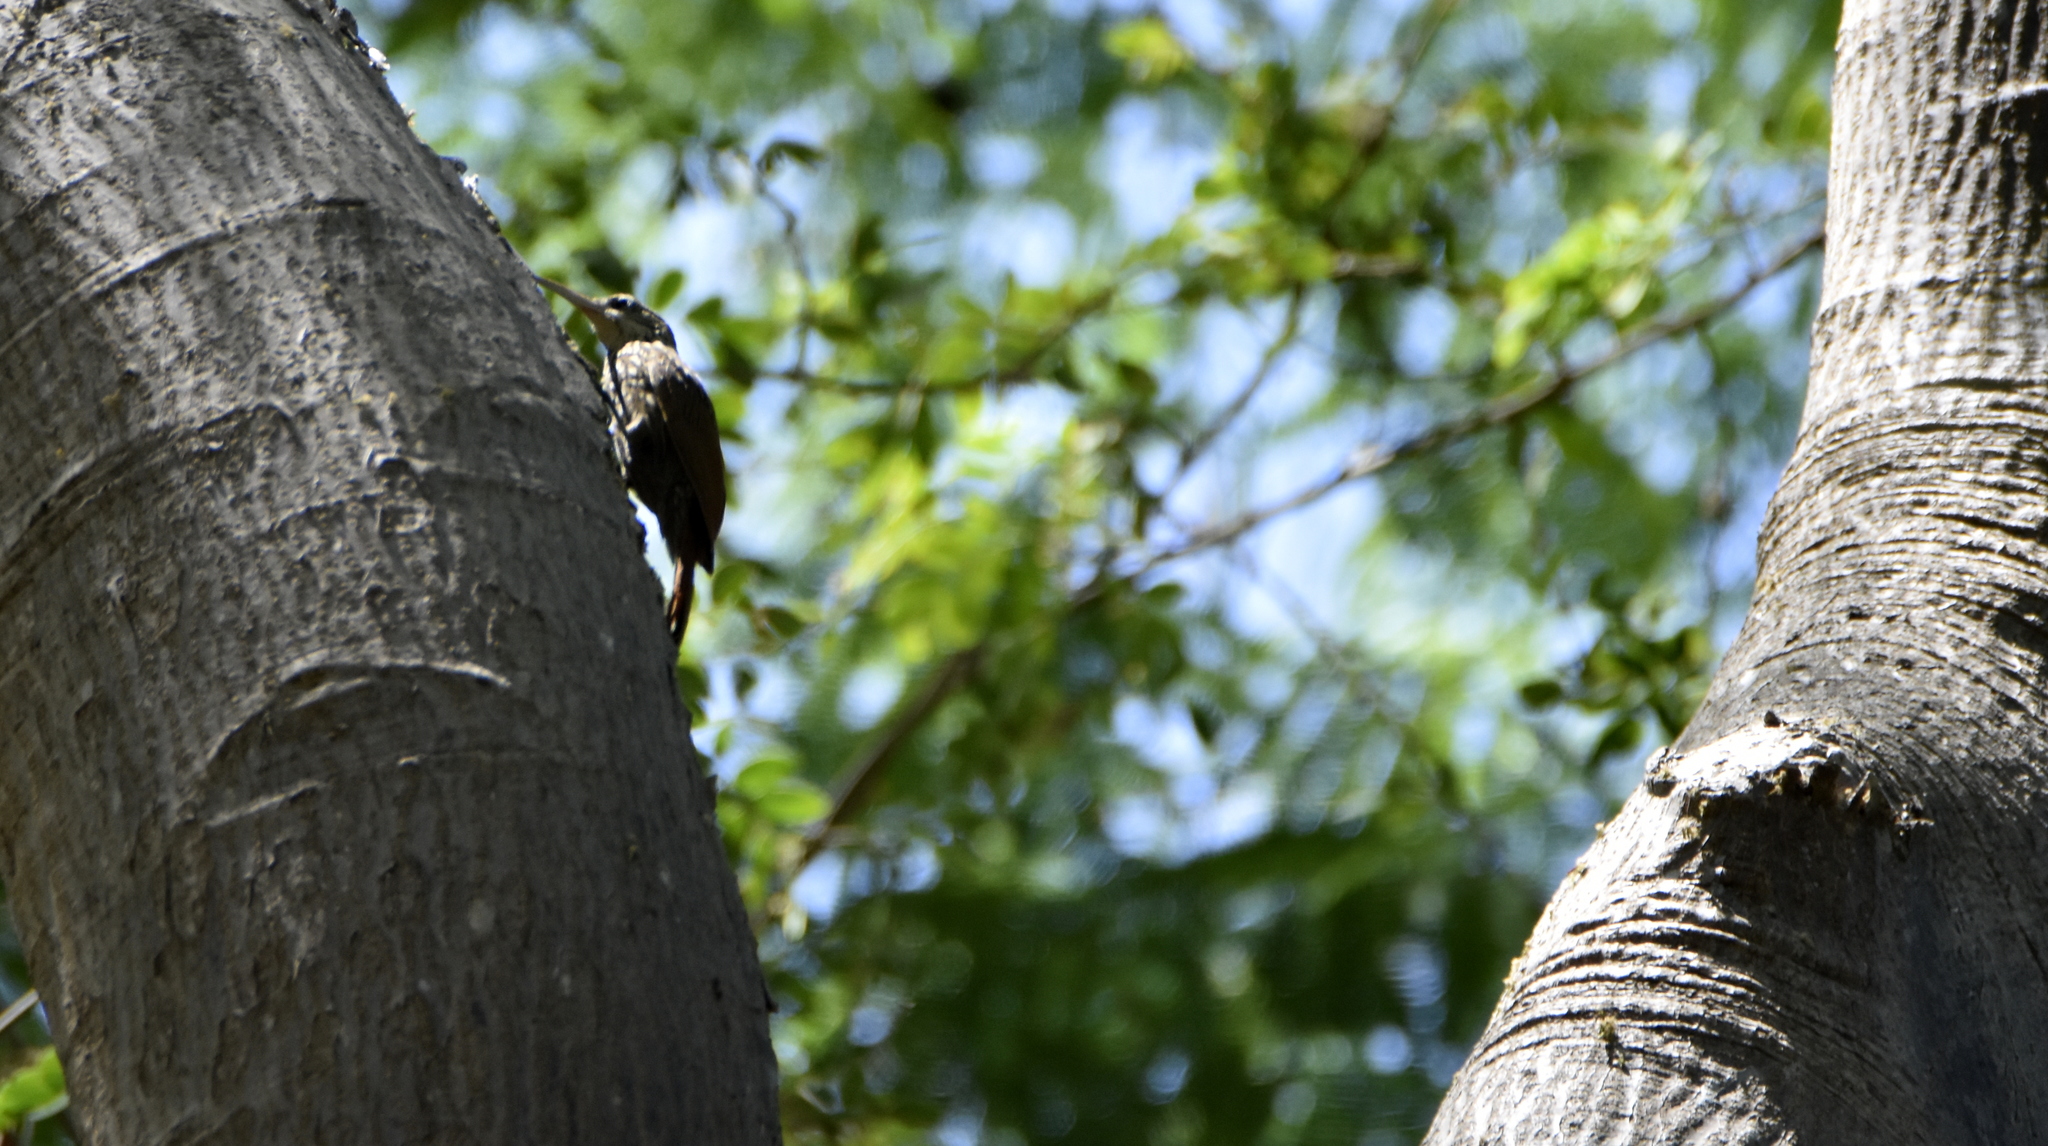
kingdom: Animalia
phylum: Chordata
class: Aves
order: Passeriformes
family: Furnariidae
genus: Xiphorhynchus
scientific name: Xiphorhynchus flavigaster
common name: Ivory-billed woodcreeper
